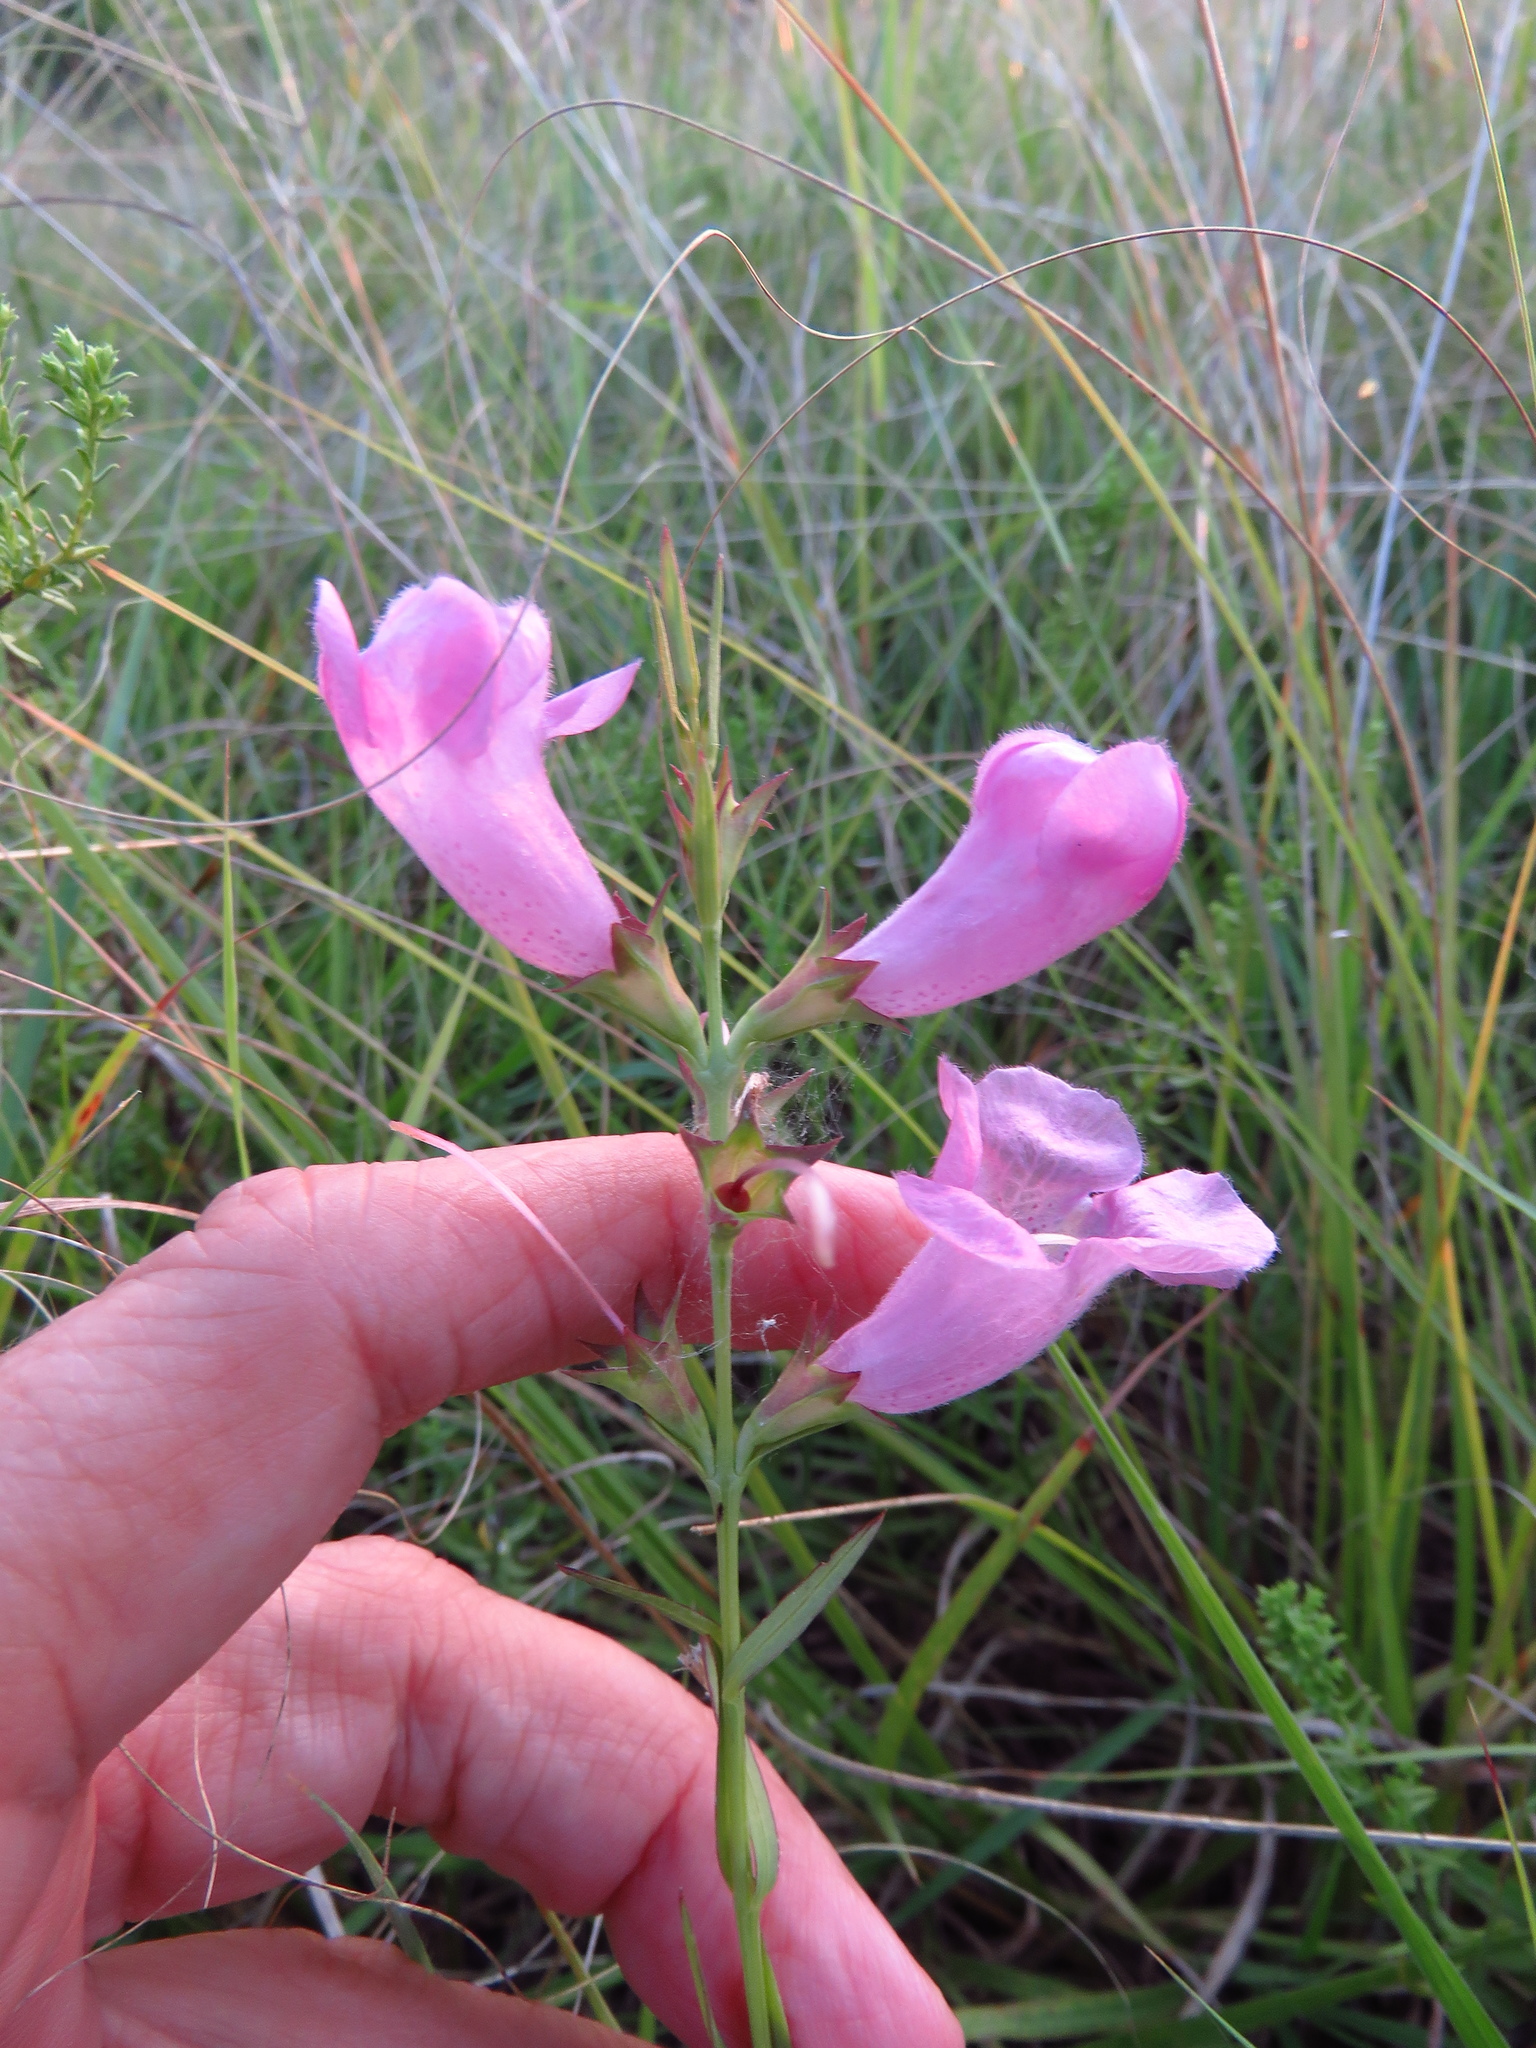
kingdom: Plantae
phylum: Tracheophyta
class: Magnoliopsida
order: Lamiales
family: Orobanchaceae
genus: Agalinis
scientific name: Agalinis heterophylla
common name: Prairie agalinis
